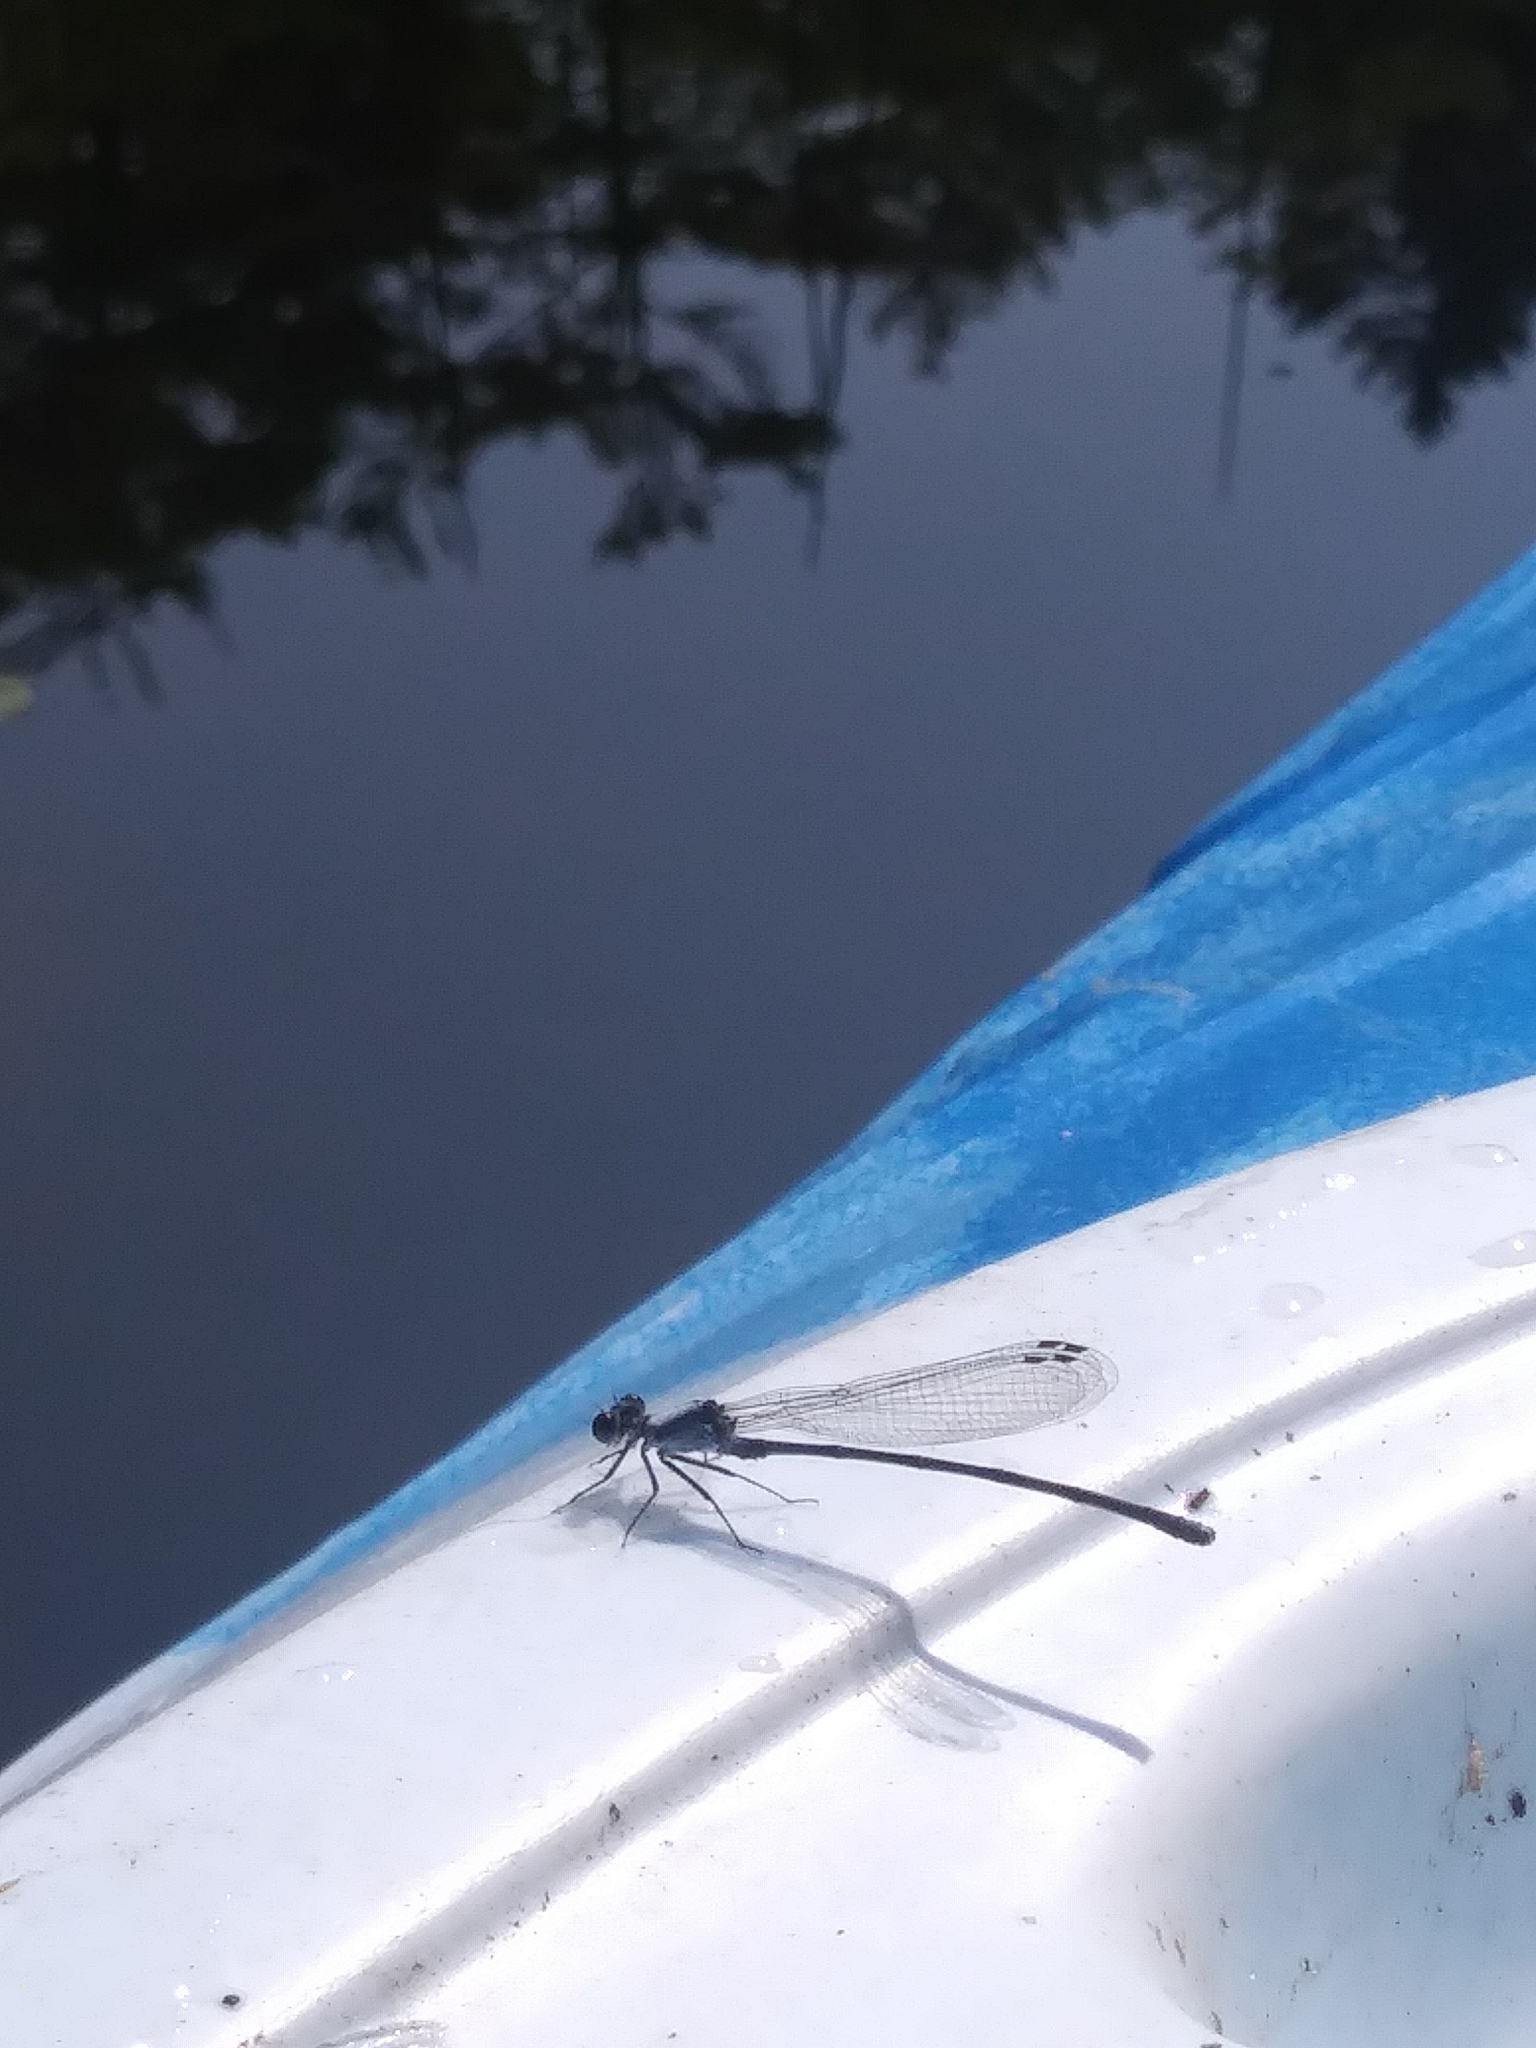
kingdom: Animalia
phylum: Arthropoda
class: Insecta
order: Odonata
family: Coenagrionidae
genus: Argia
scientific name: Argia moesta
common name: Powdered dancer
